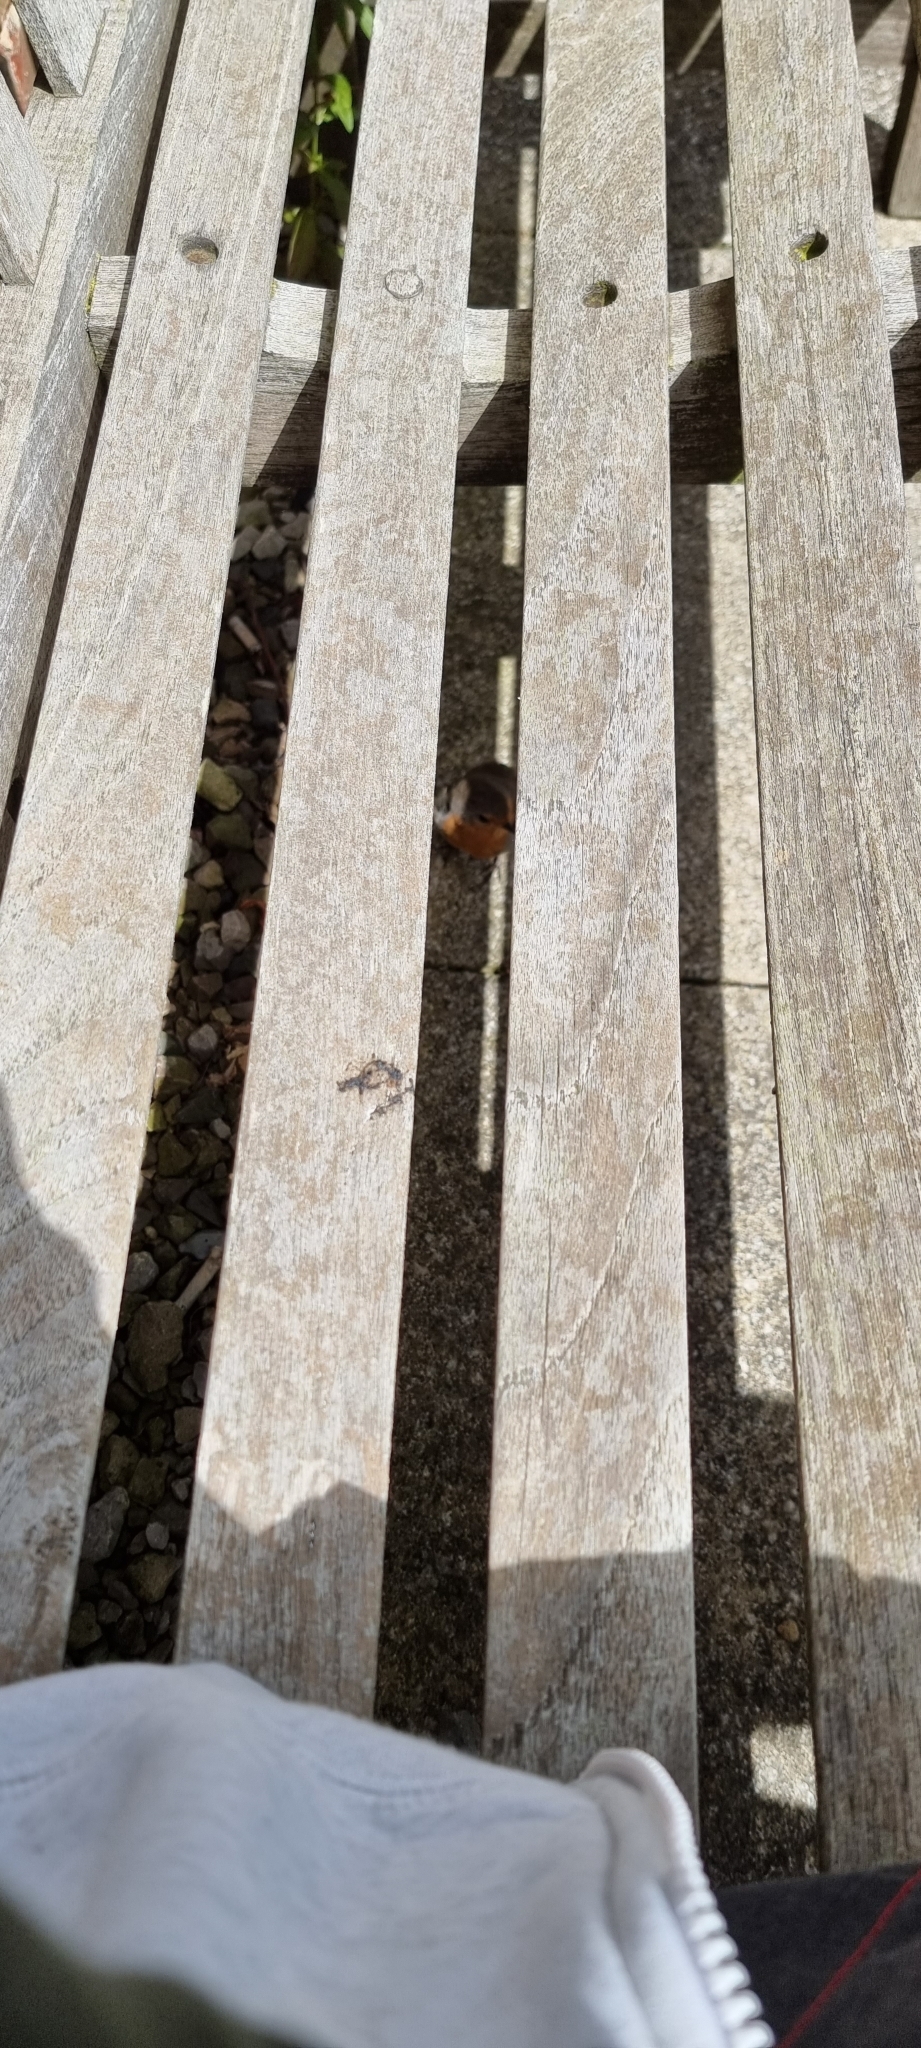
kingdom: Animalia
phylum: Chordata
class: Aves
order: Passeriformes
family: Muscicapidae
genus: Erithacus
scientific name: Erithacus rubecula
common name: European robin
